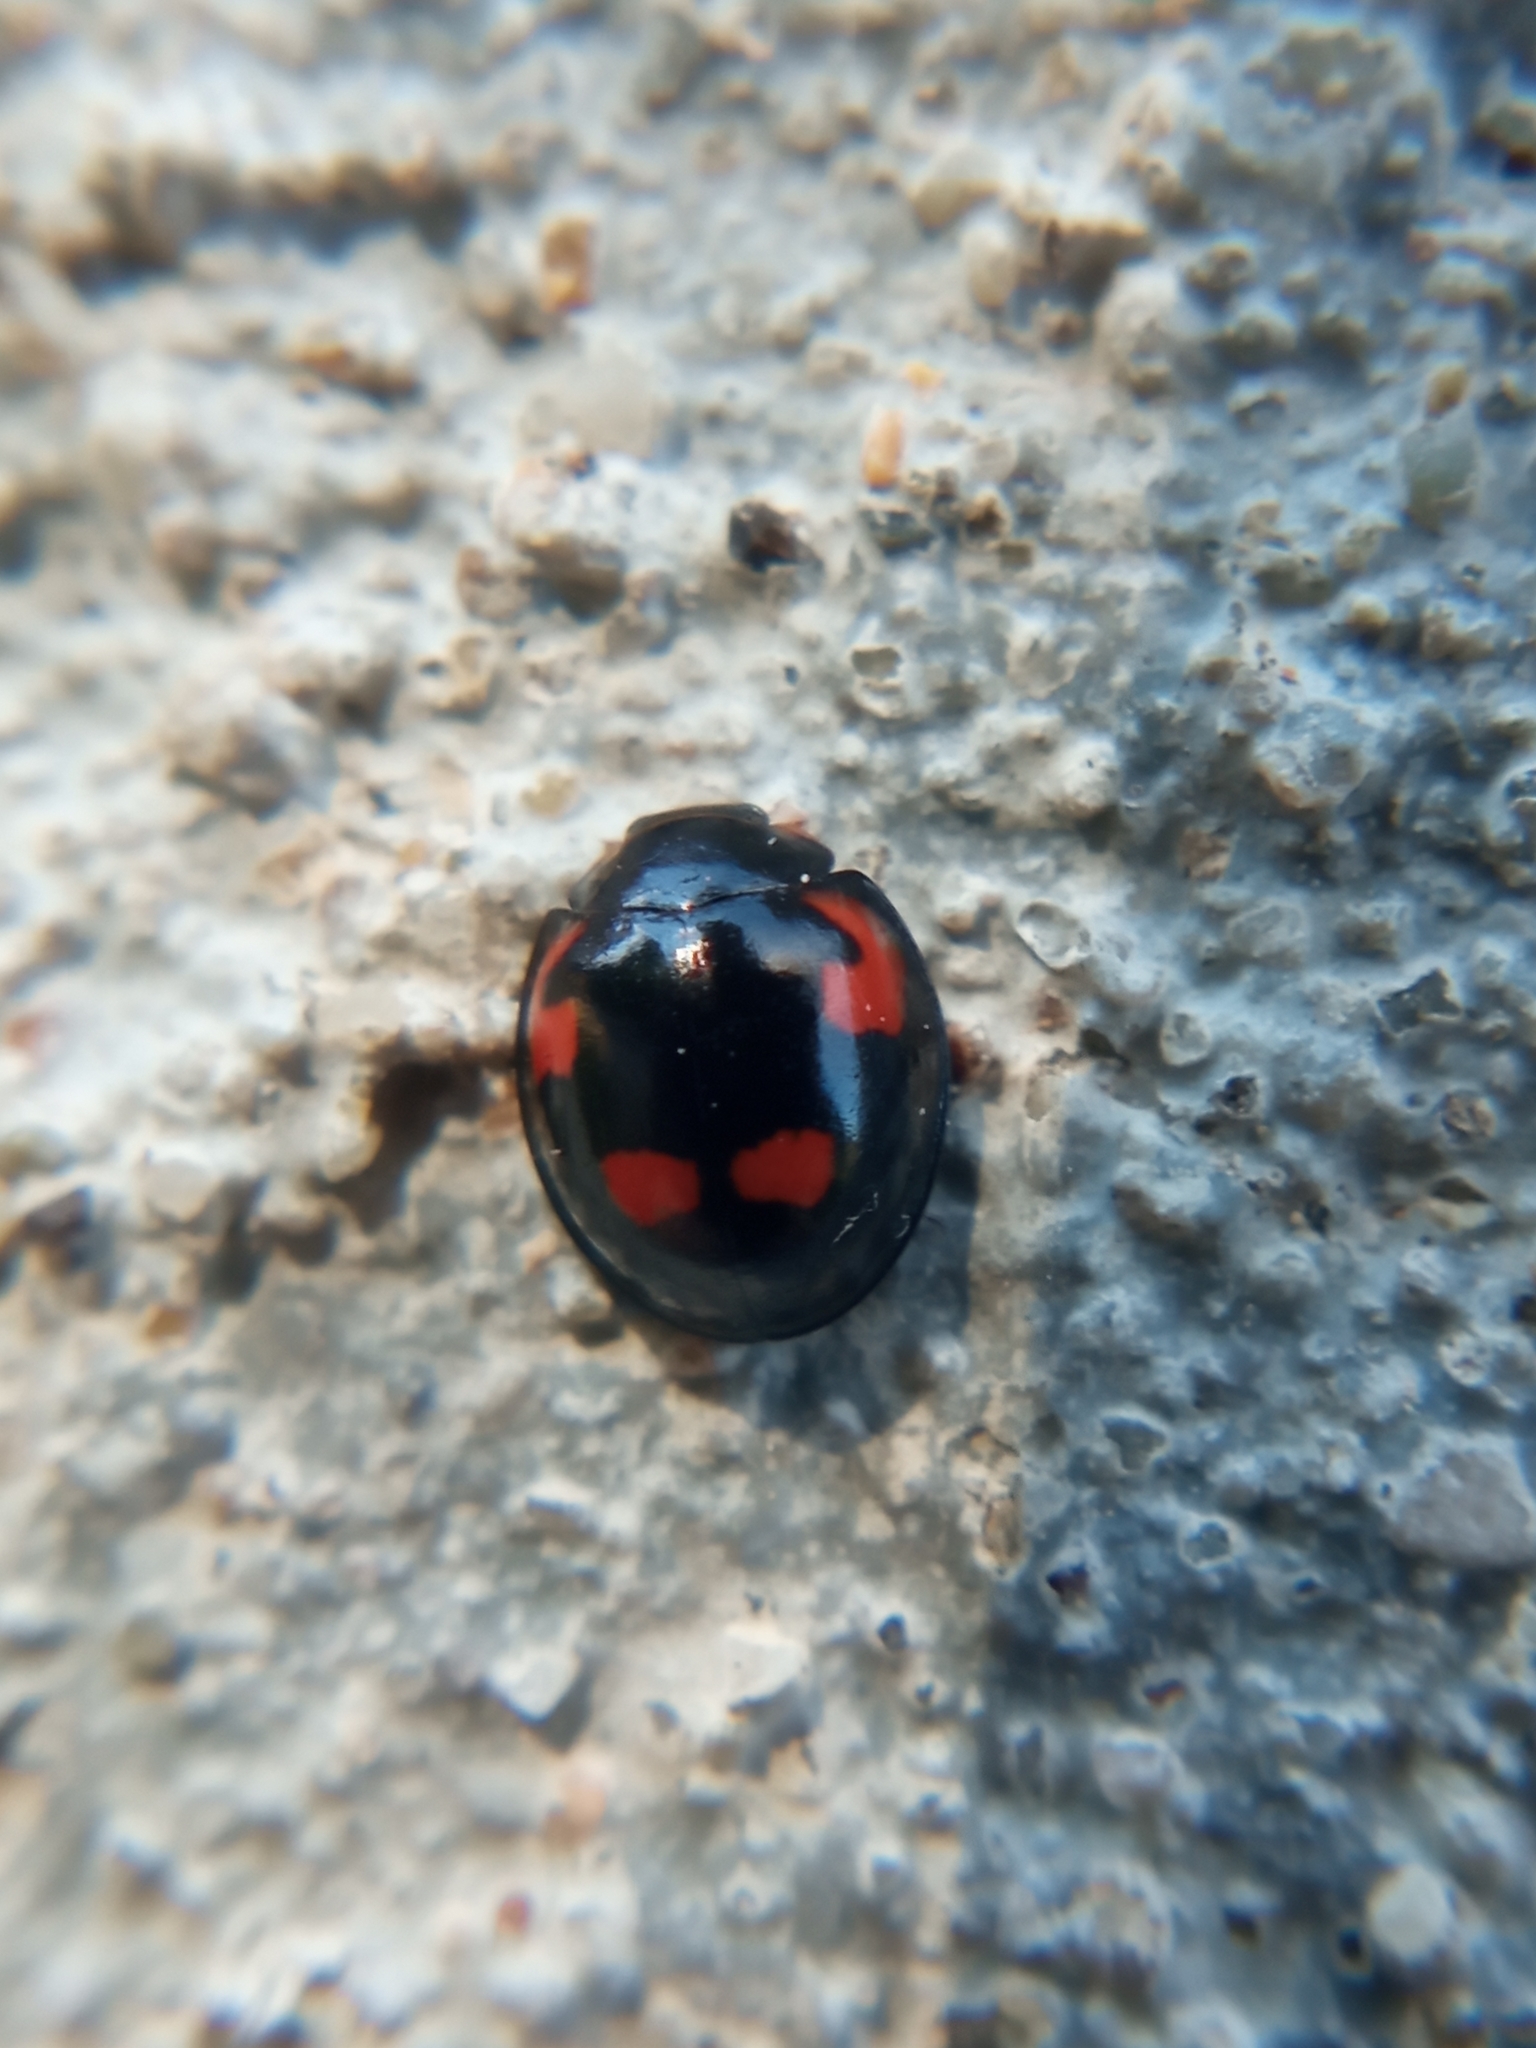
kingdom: Animalia
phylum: Arthropoda
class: Insecta
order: Coleoptera
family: Coccinellidae
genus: Brumus
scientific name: Brumus quadripustulatus
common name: Ladybird beetle
